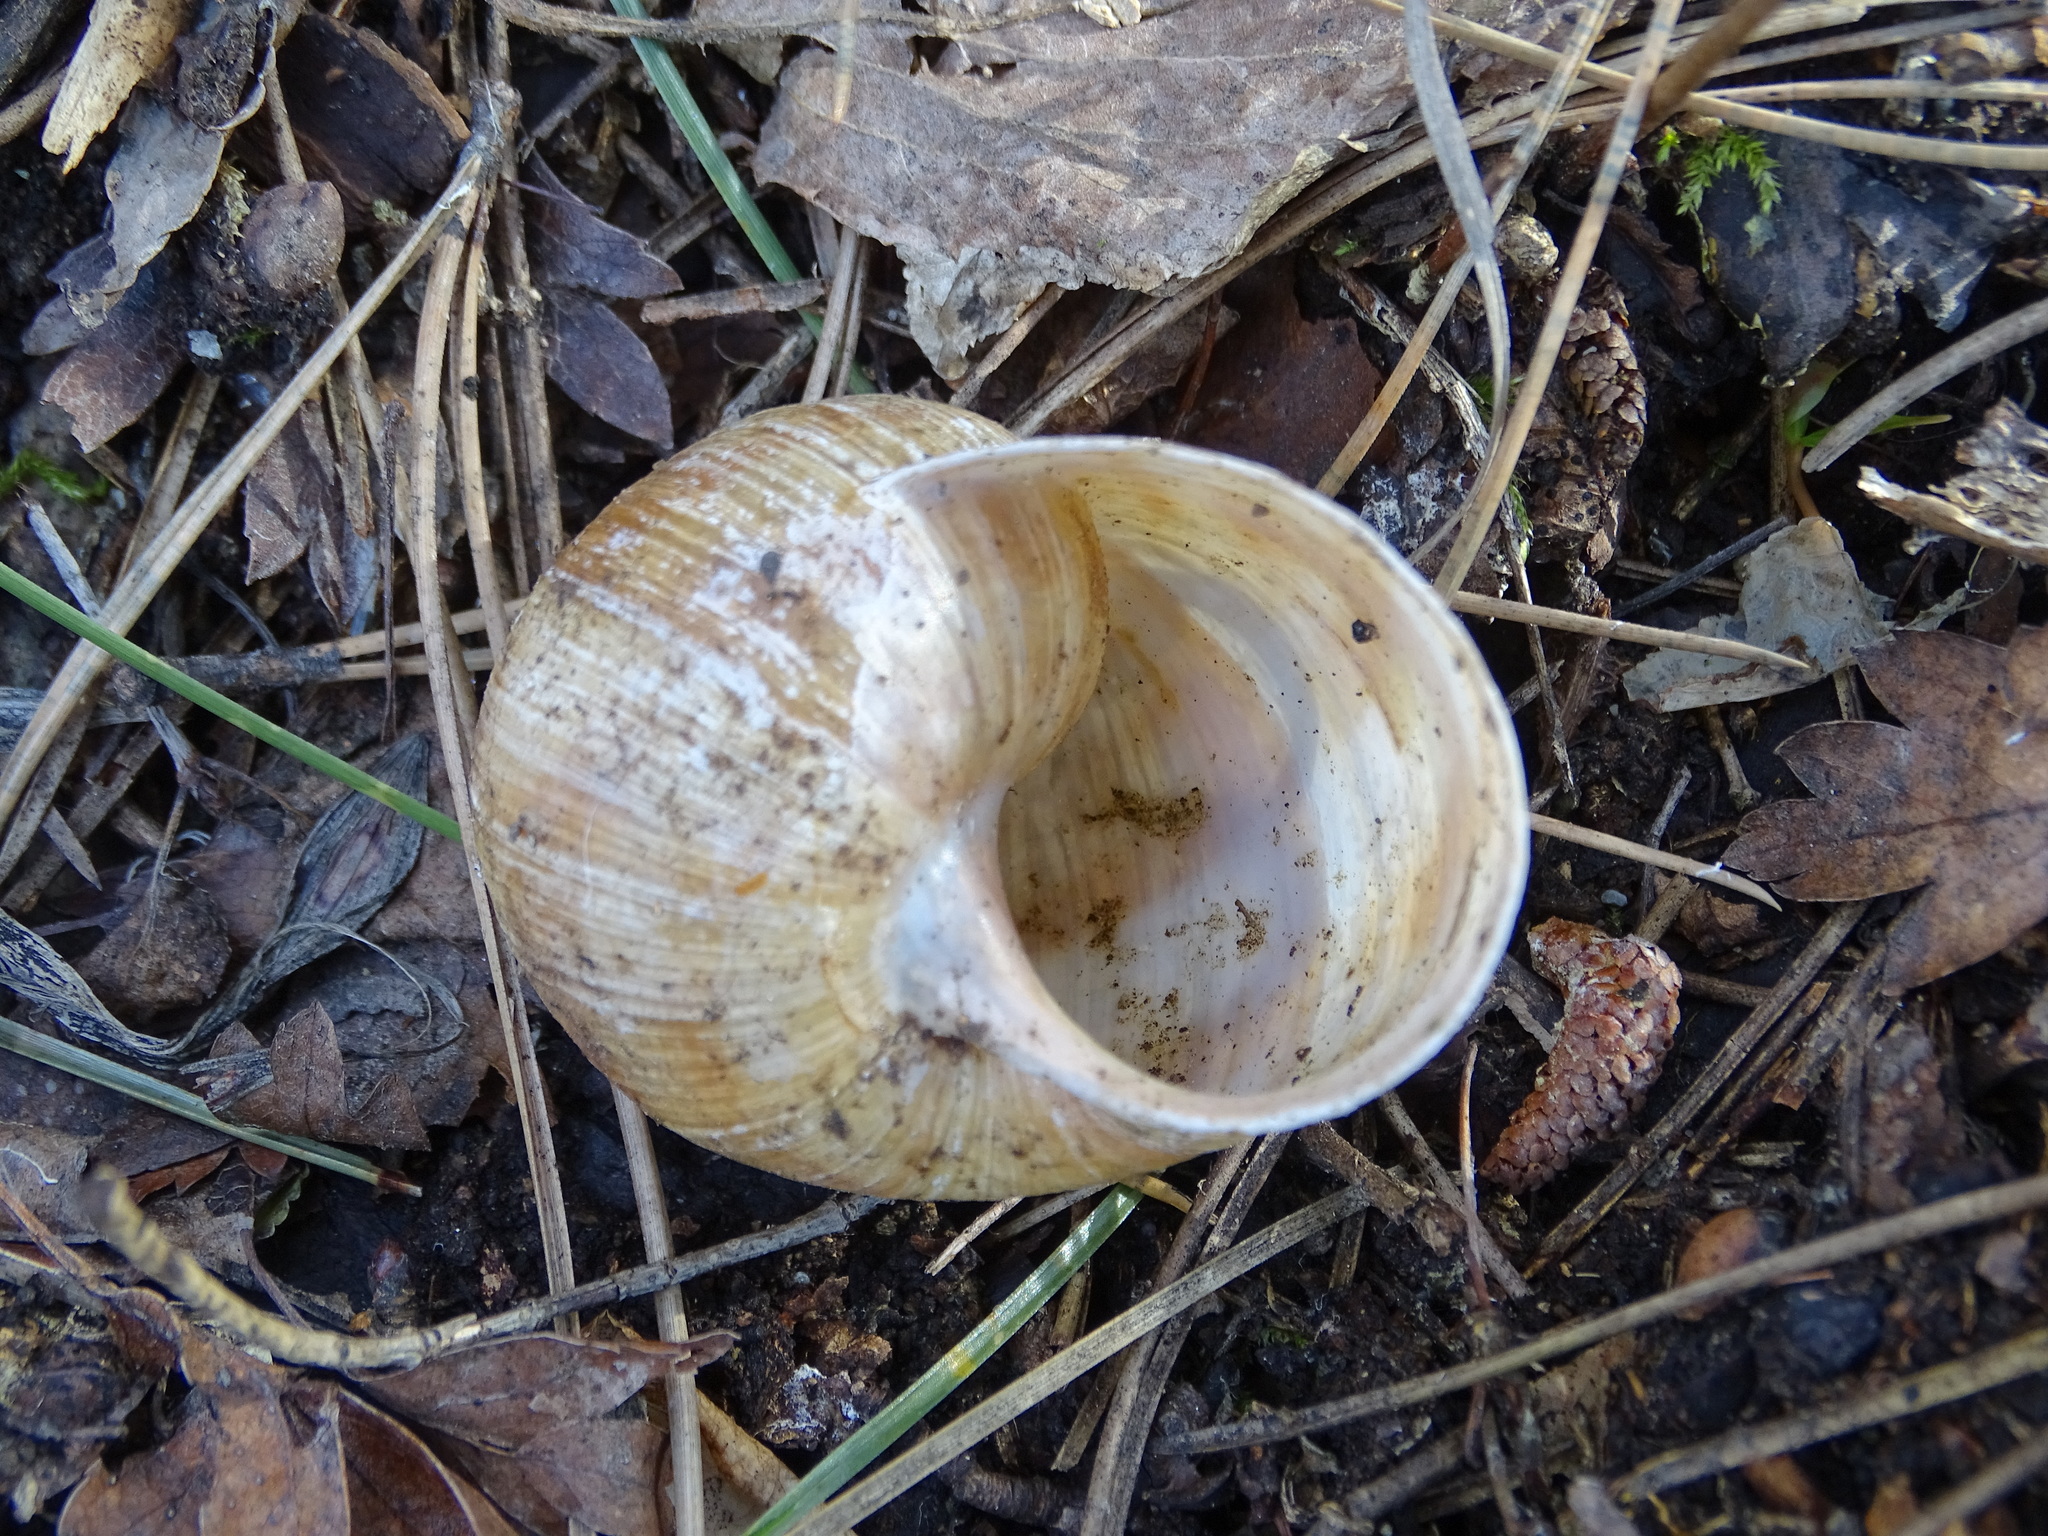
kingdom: Animalia
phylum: Mollusca
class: Gastropoda
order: Stylommatophora
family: Helicidae
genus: Helix
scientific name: Helix pomatia
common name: Roman snail
